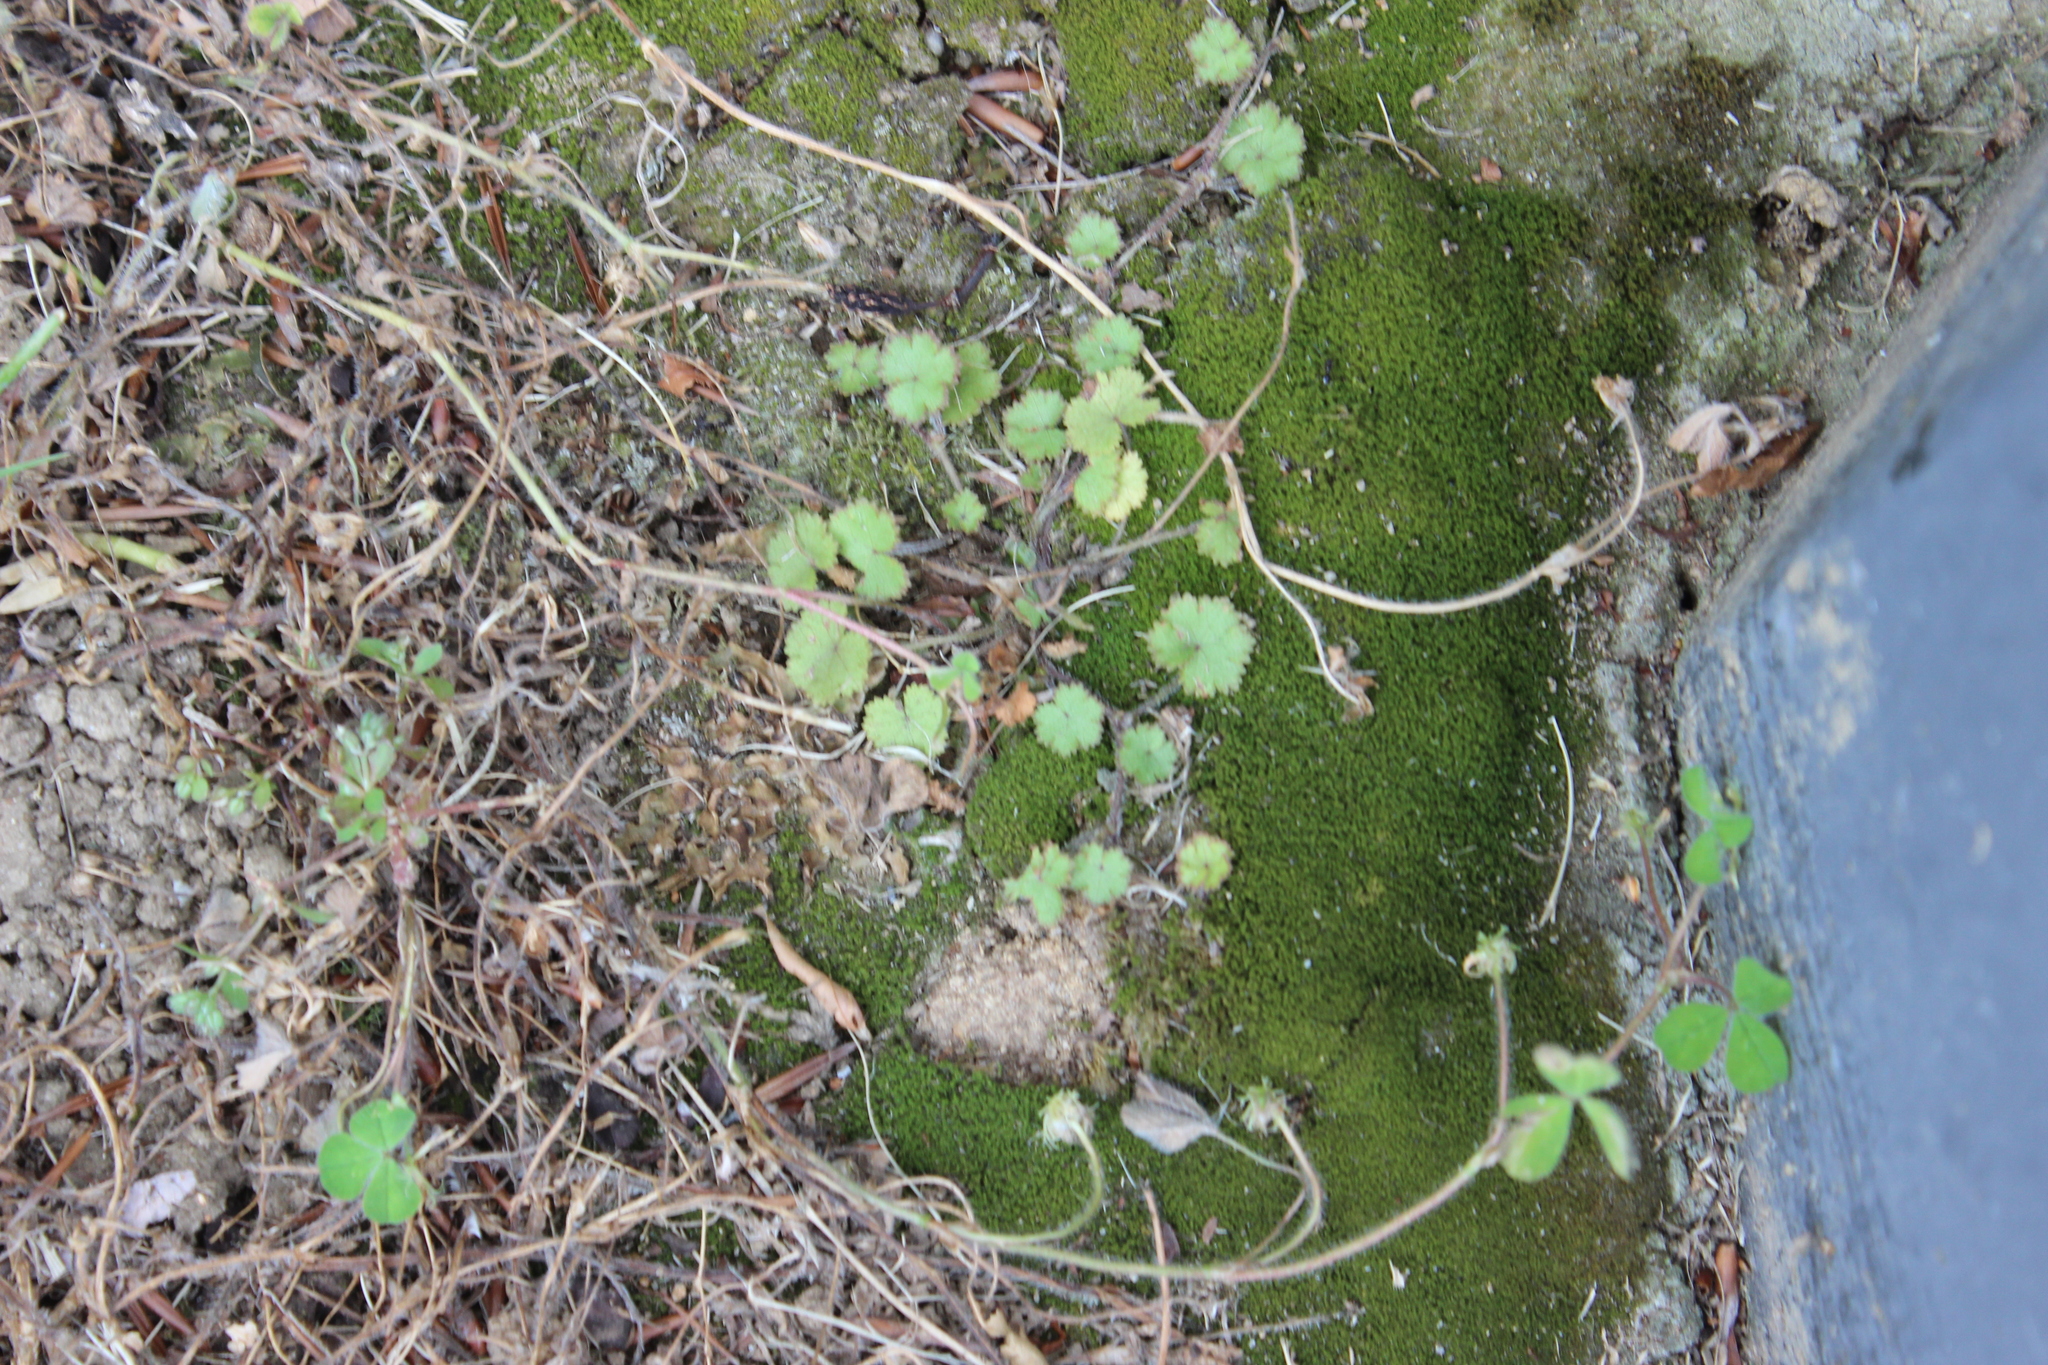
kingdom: Plantae
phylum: Tracheophyta
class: Magnoliopsida
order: Apiales
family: Araliaceae
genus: Hydrocotyle
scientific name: Hydrocotyle moschata
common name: Hairy pennywort
